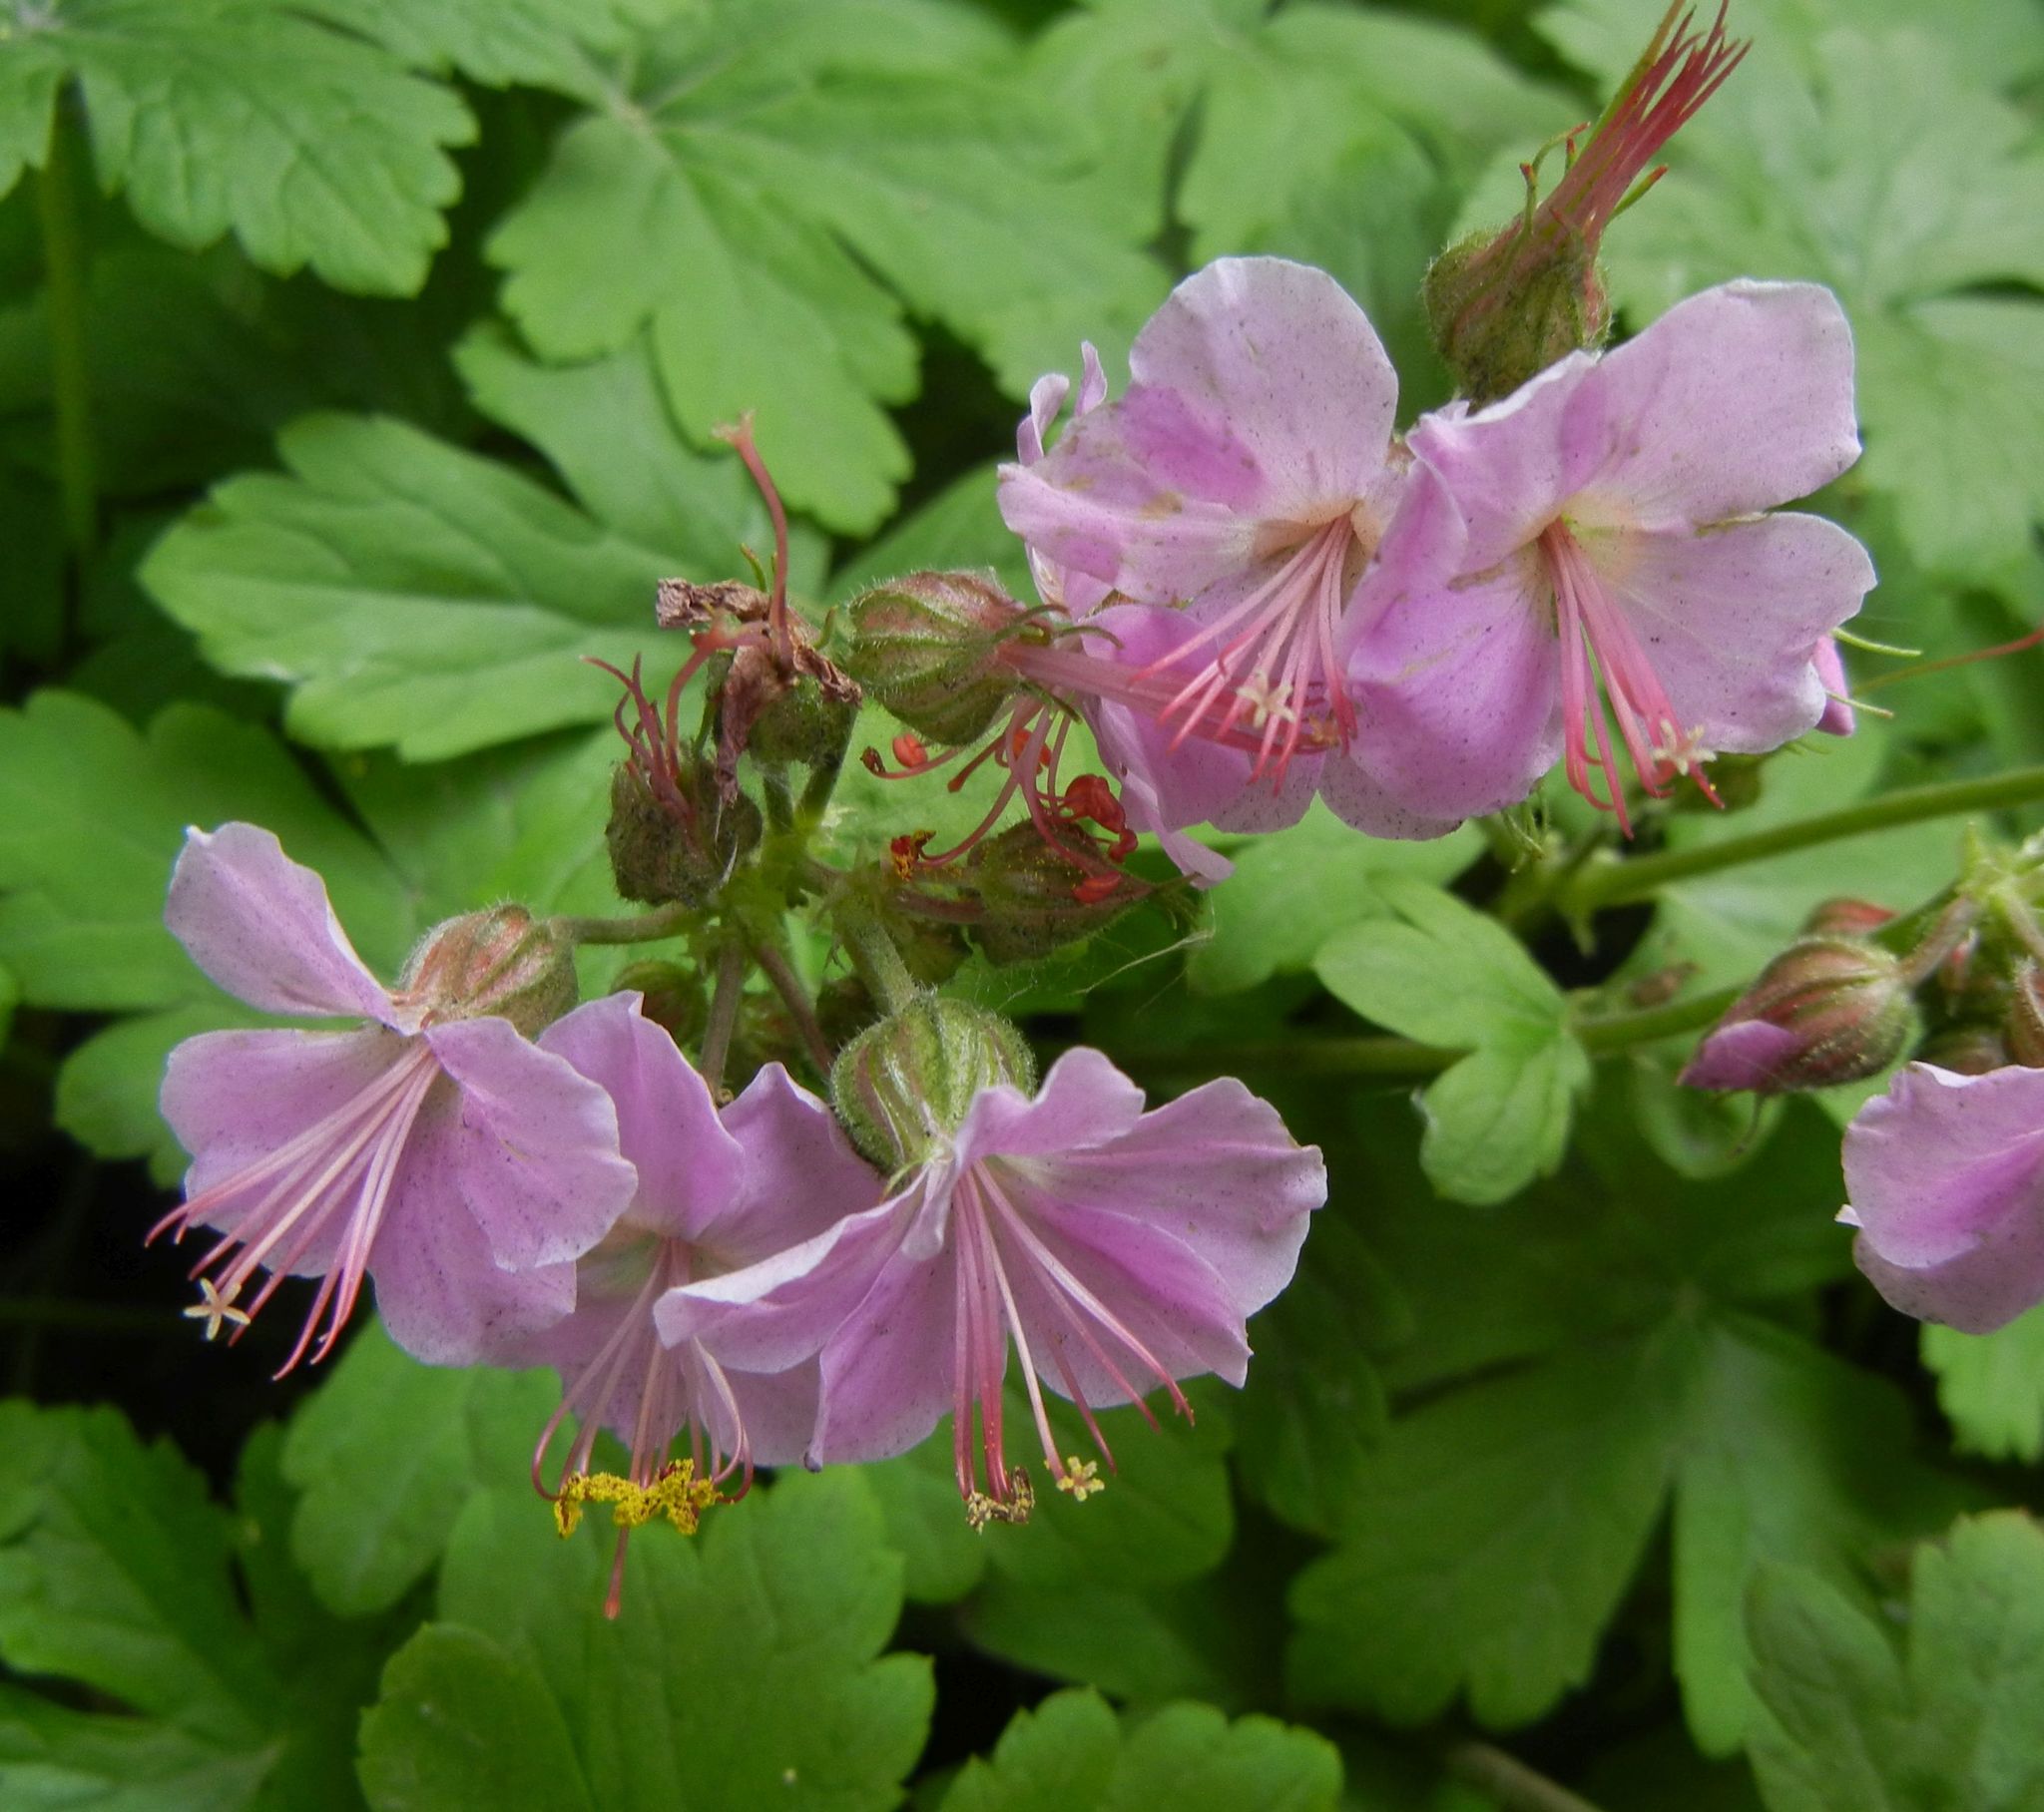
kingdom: Plantae
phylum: Tracheophyta
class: Magnoliopsida
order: Geraniales
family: Geraniaceae
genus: Geranium
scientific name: Geranium cantabrigiense
